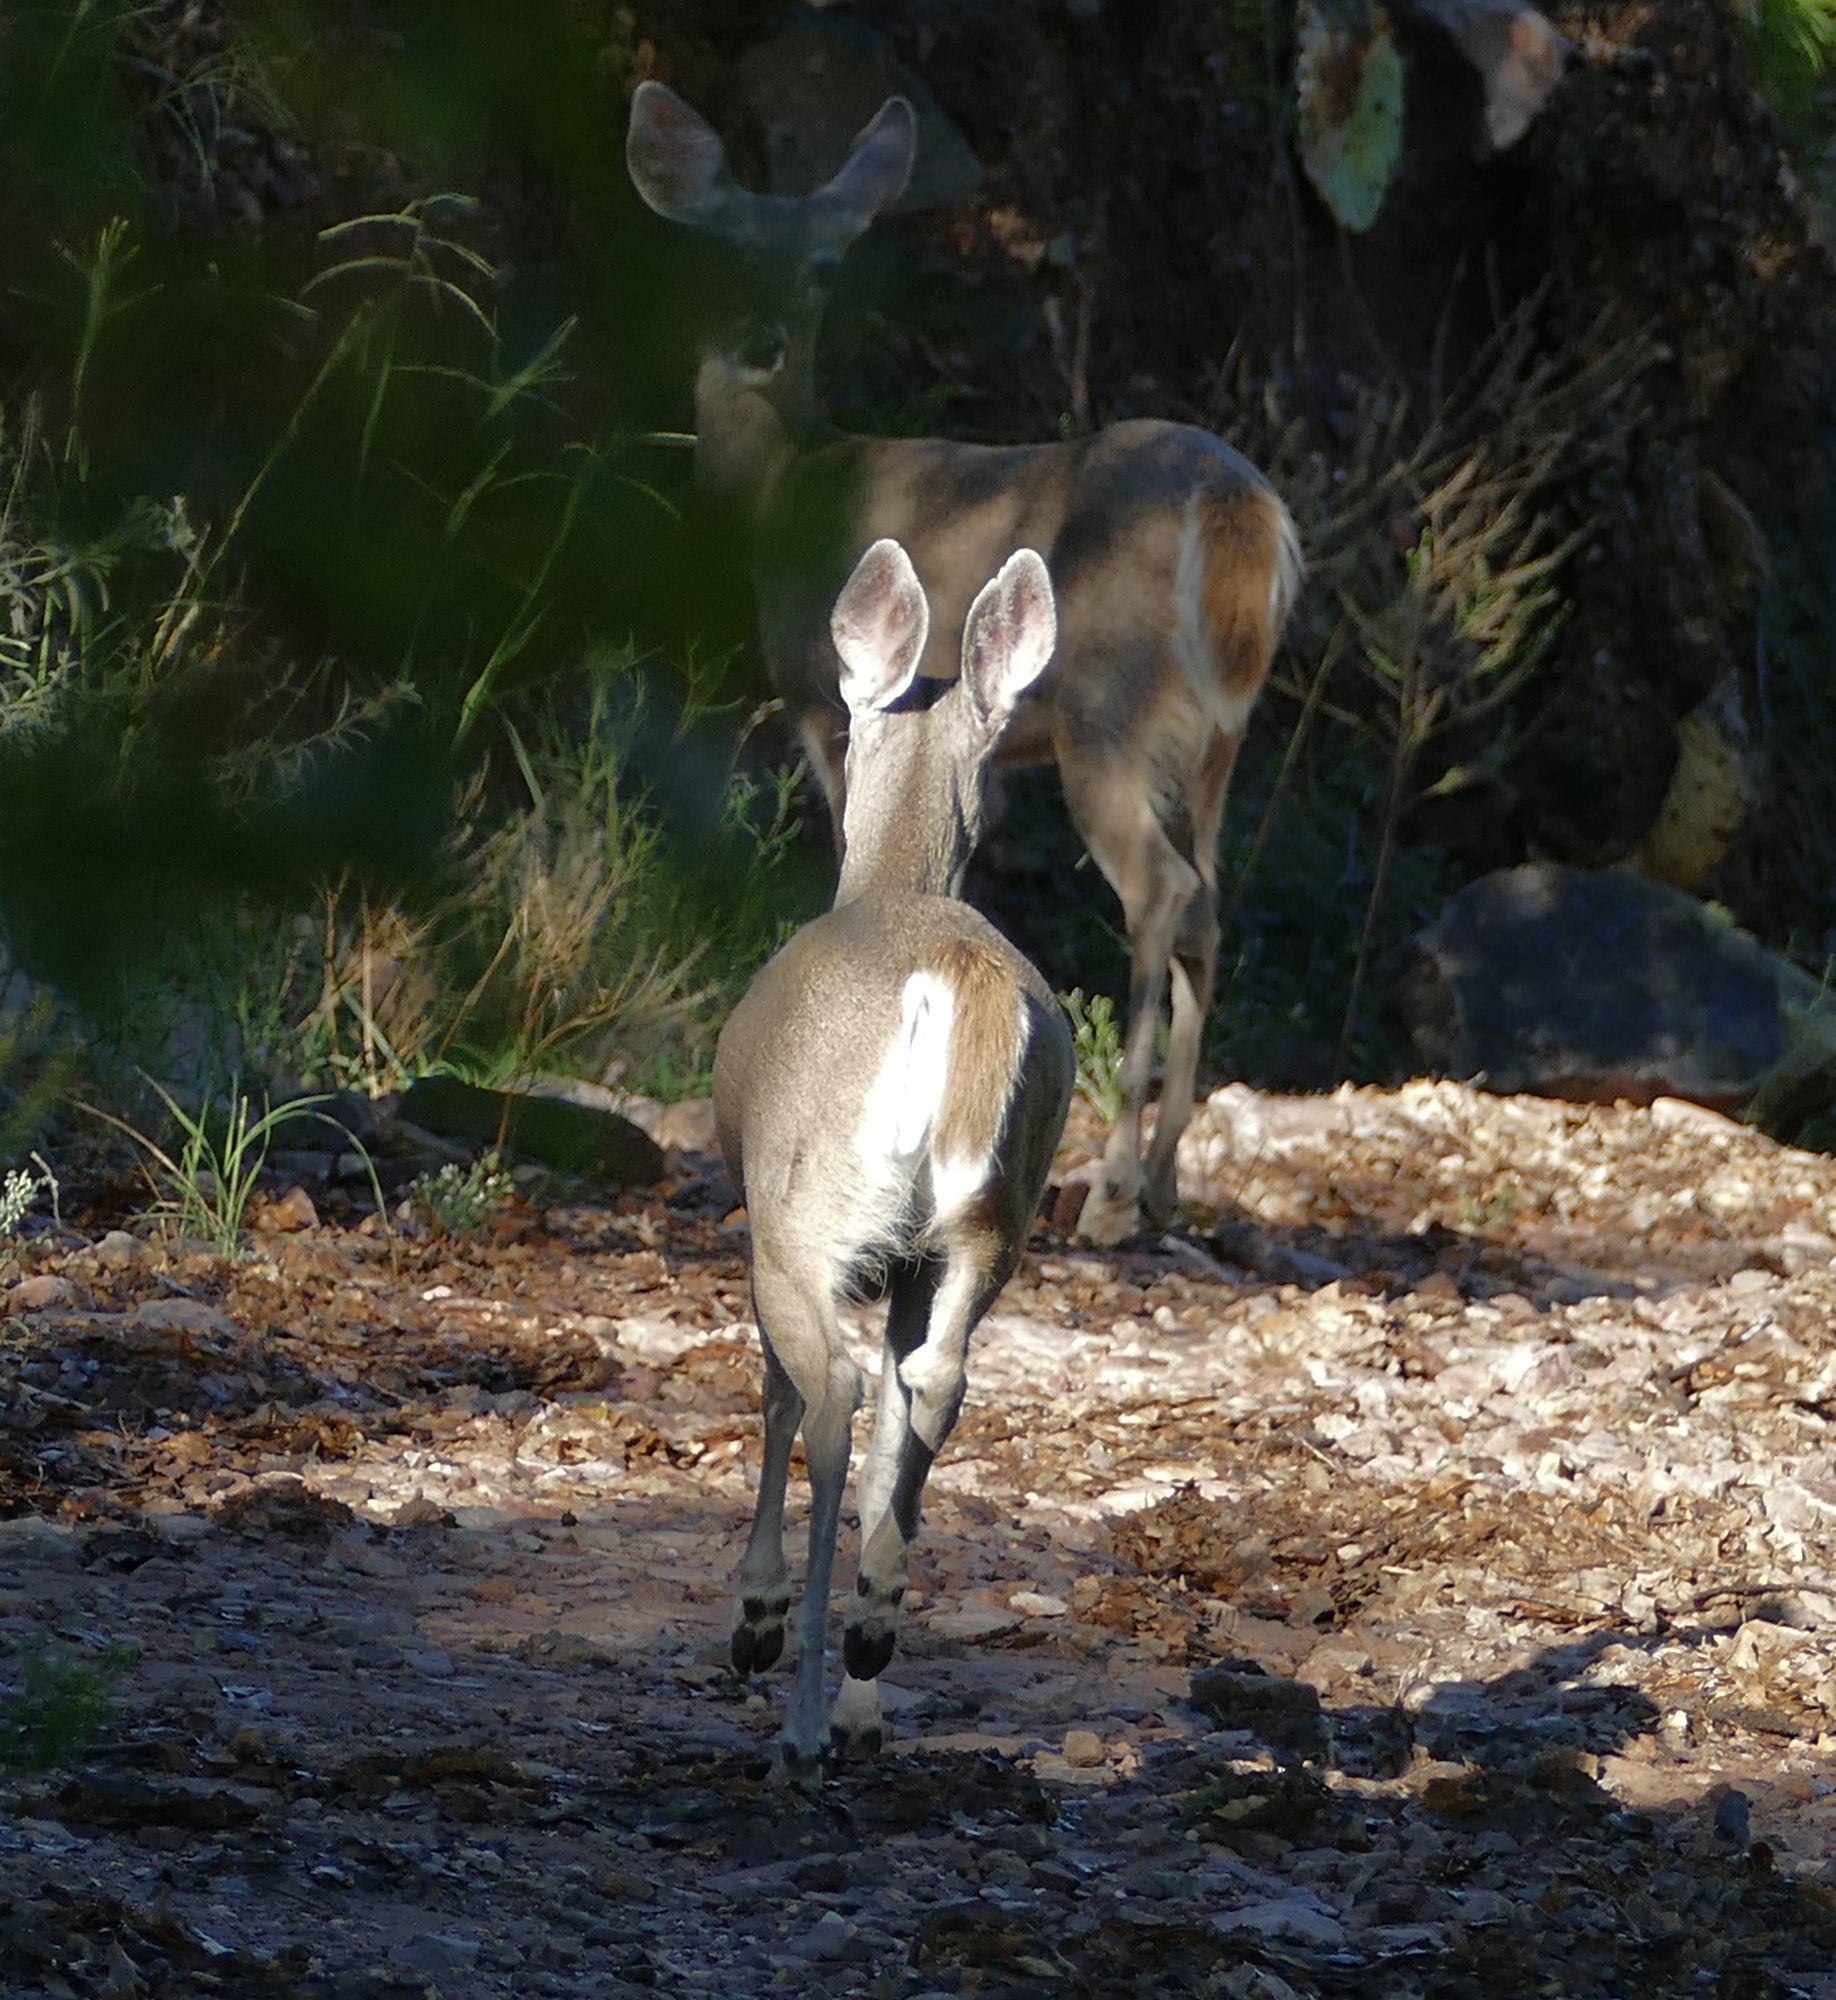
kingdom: Animalia
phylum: Chordata
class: Mammalia
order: Artiodactyla
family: Cervidae
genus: Odocoileus
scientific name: Odocoileus virginianus
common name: White-tailed deer
